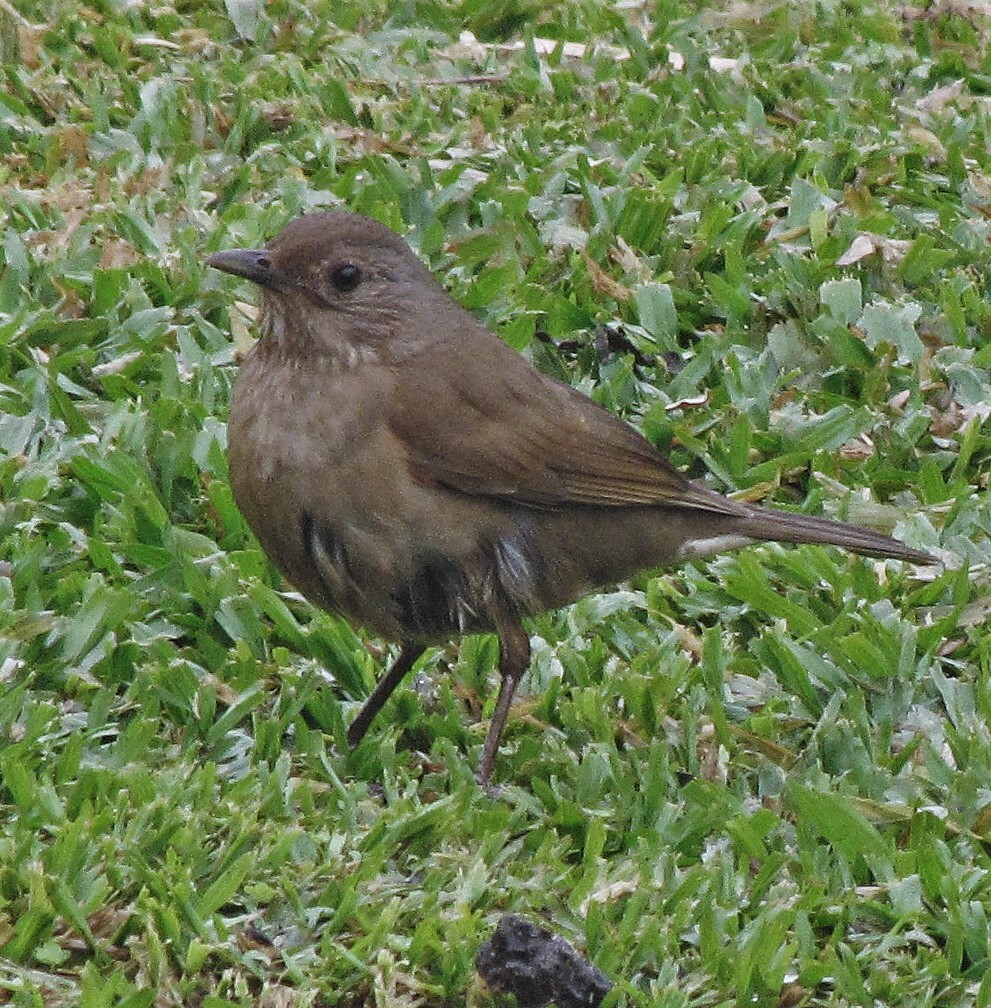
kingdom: Animalia
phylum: Chordata
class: Aves
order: Passeriformes
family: Turdidae
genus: Turdus
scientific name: Turdus leucomelas
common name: Pale-breasted thrush
